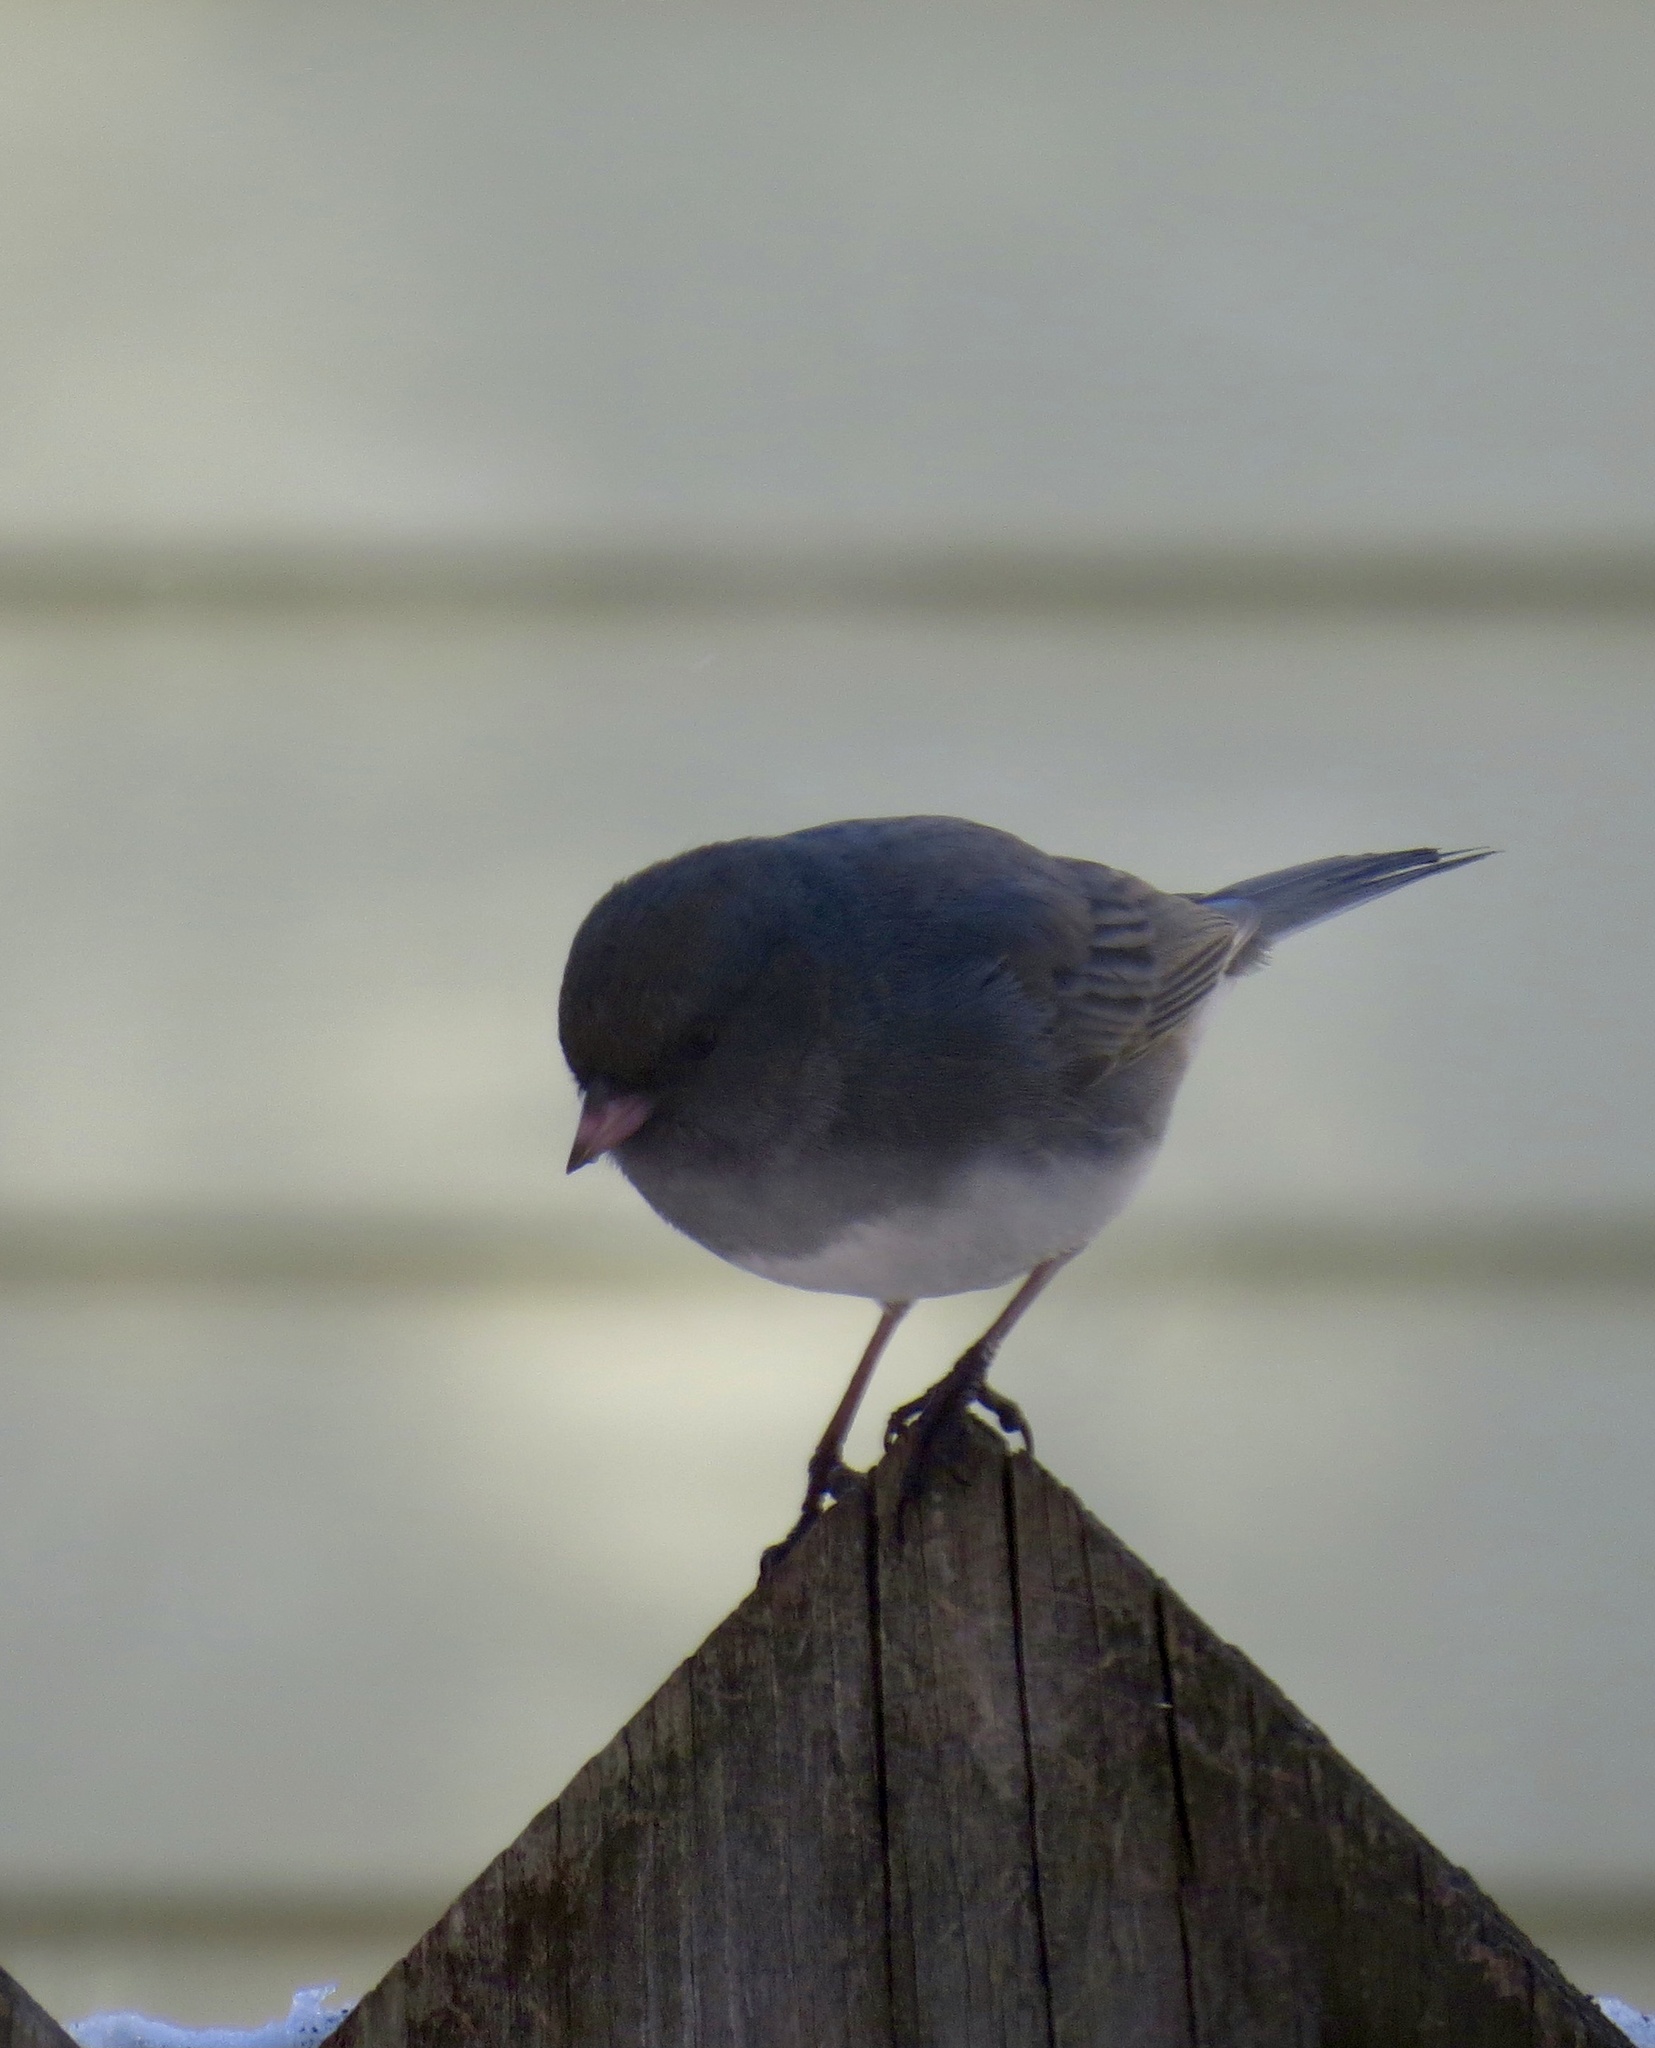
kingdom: Animalia
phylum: Chordata
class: Aves
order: Passeriformes
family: Passerellidae
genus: Junco
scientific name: Junco hyemalis
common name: Dark-eyed junco
